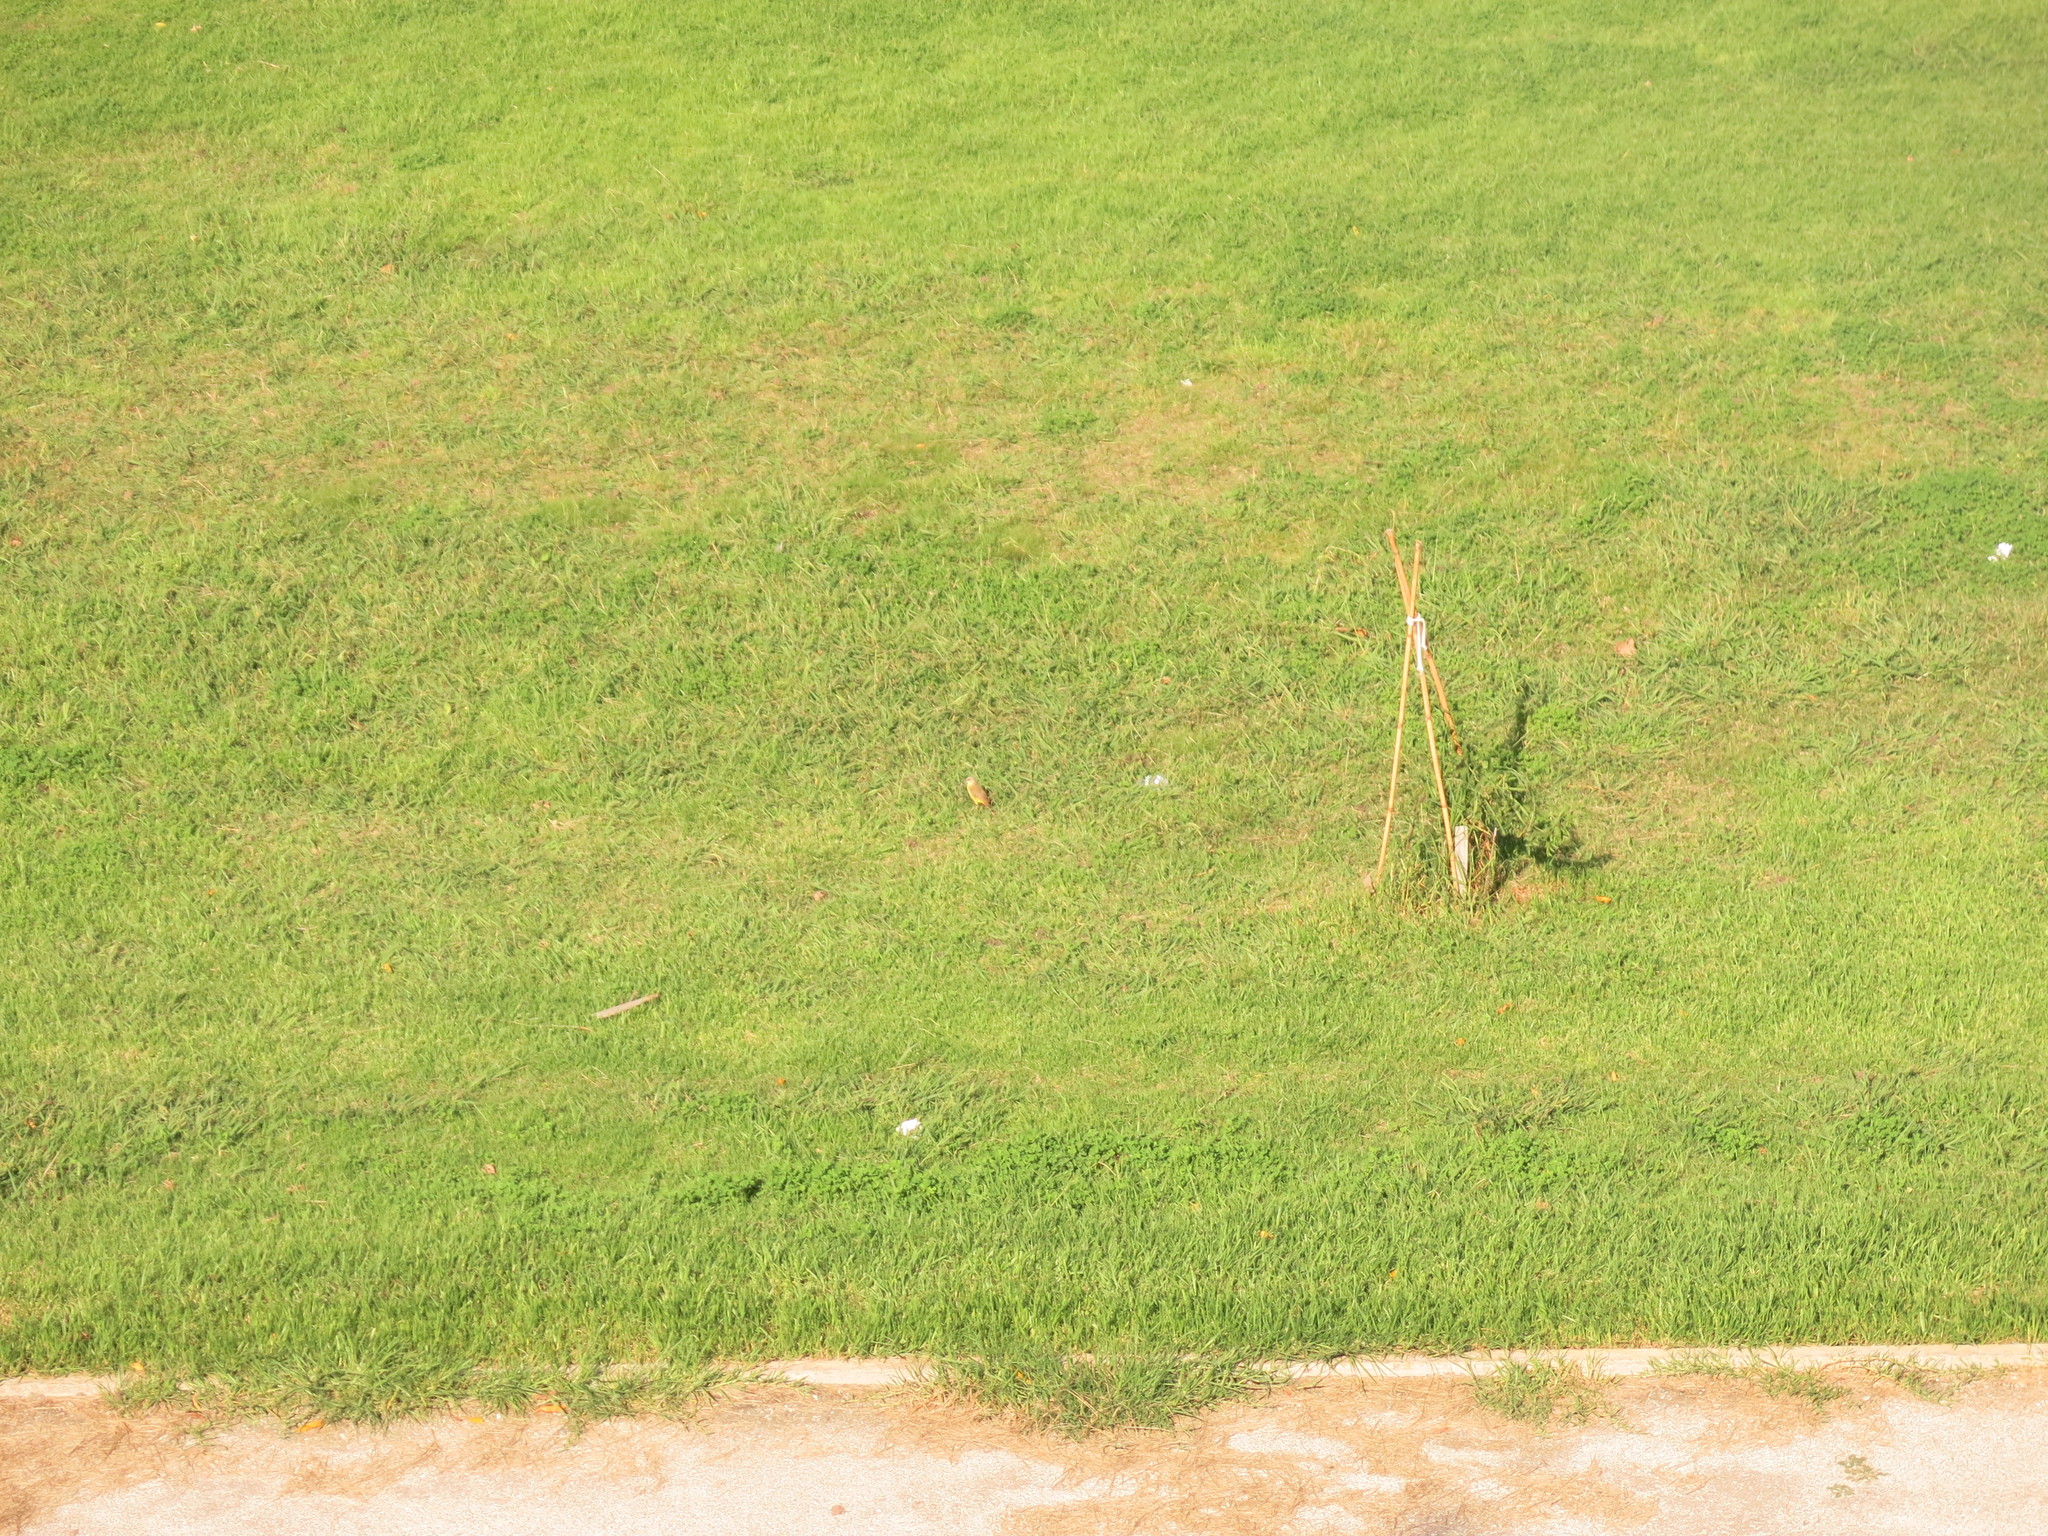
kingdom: Animalia
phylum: Chordata
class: Aves
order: Passeriformes
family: Tyrannidae
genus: Machetornis
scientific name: Machetornis rixosa
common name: Cattle tyrant
